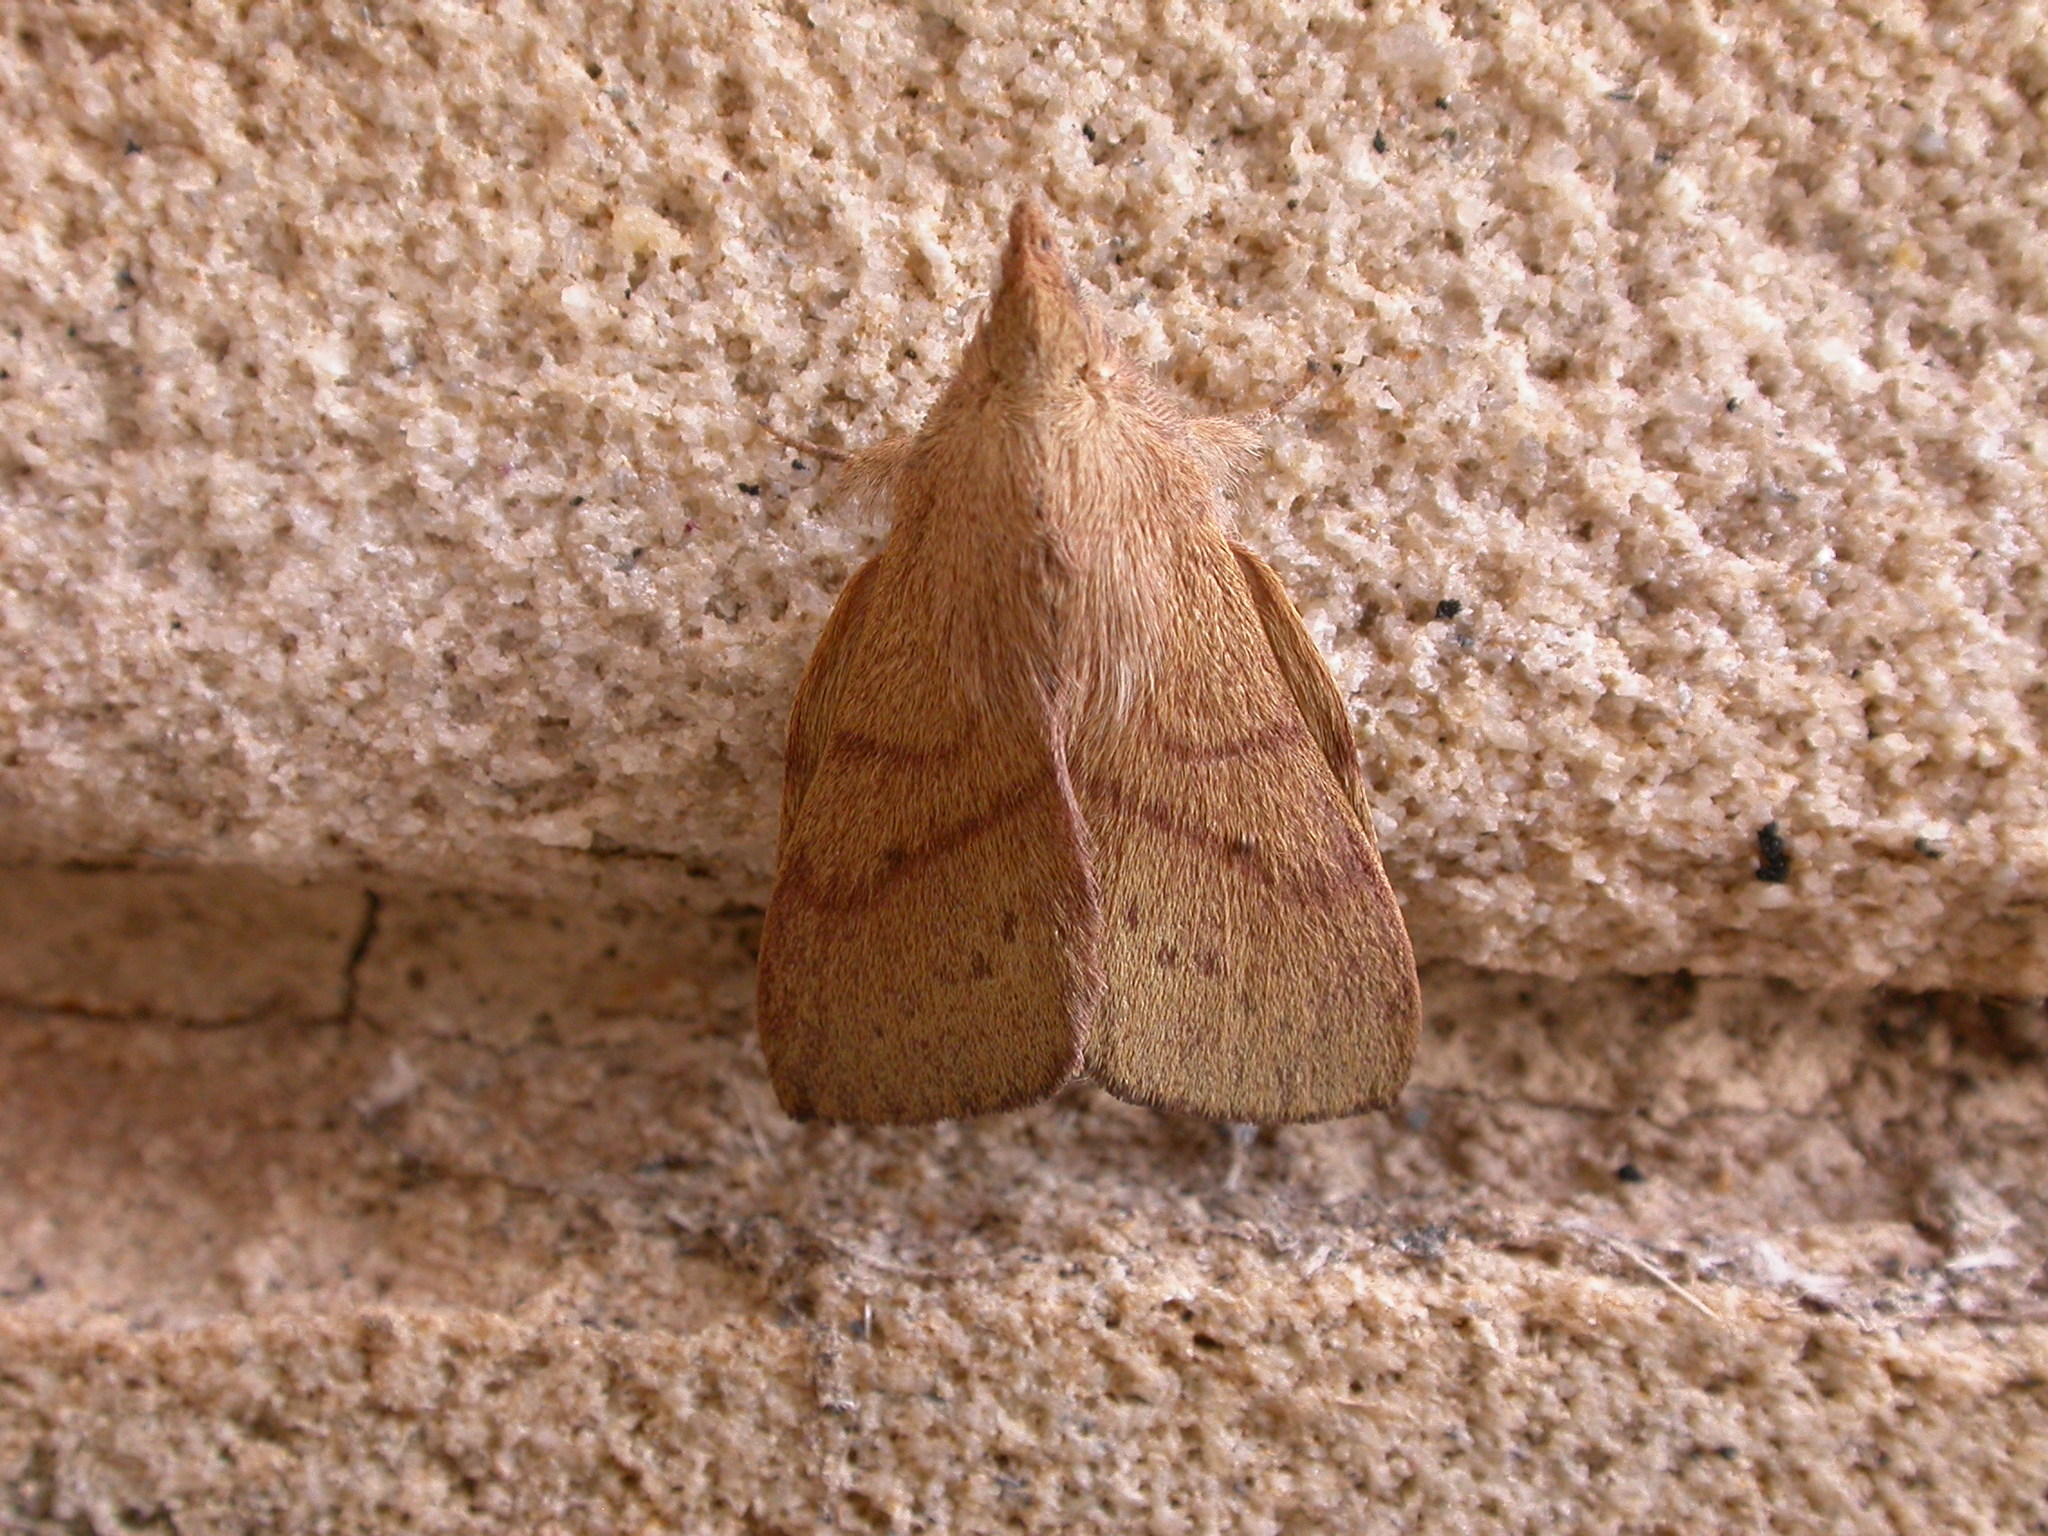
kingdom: Animalia
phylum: Arthropoda
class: Insecta
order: Lepidoptera
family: Lasiocampidae
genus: Pararguda
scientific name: Pararguda nasuta
